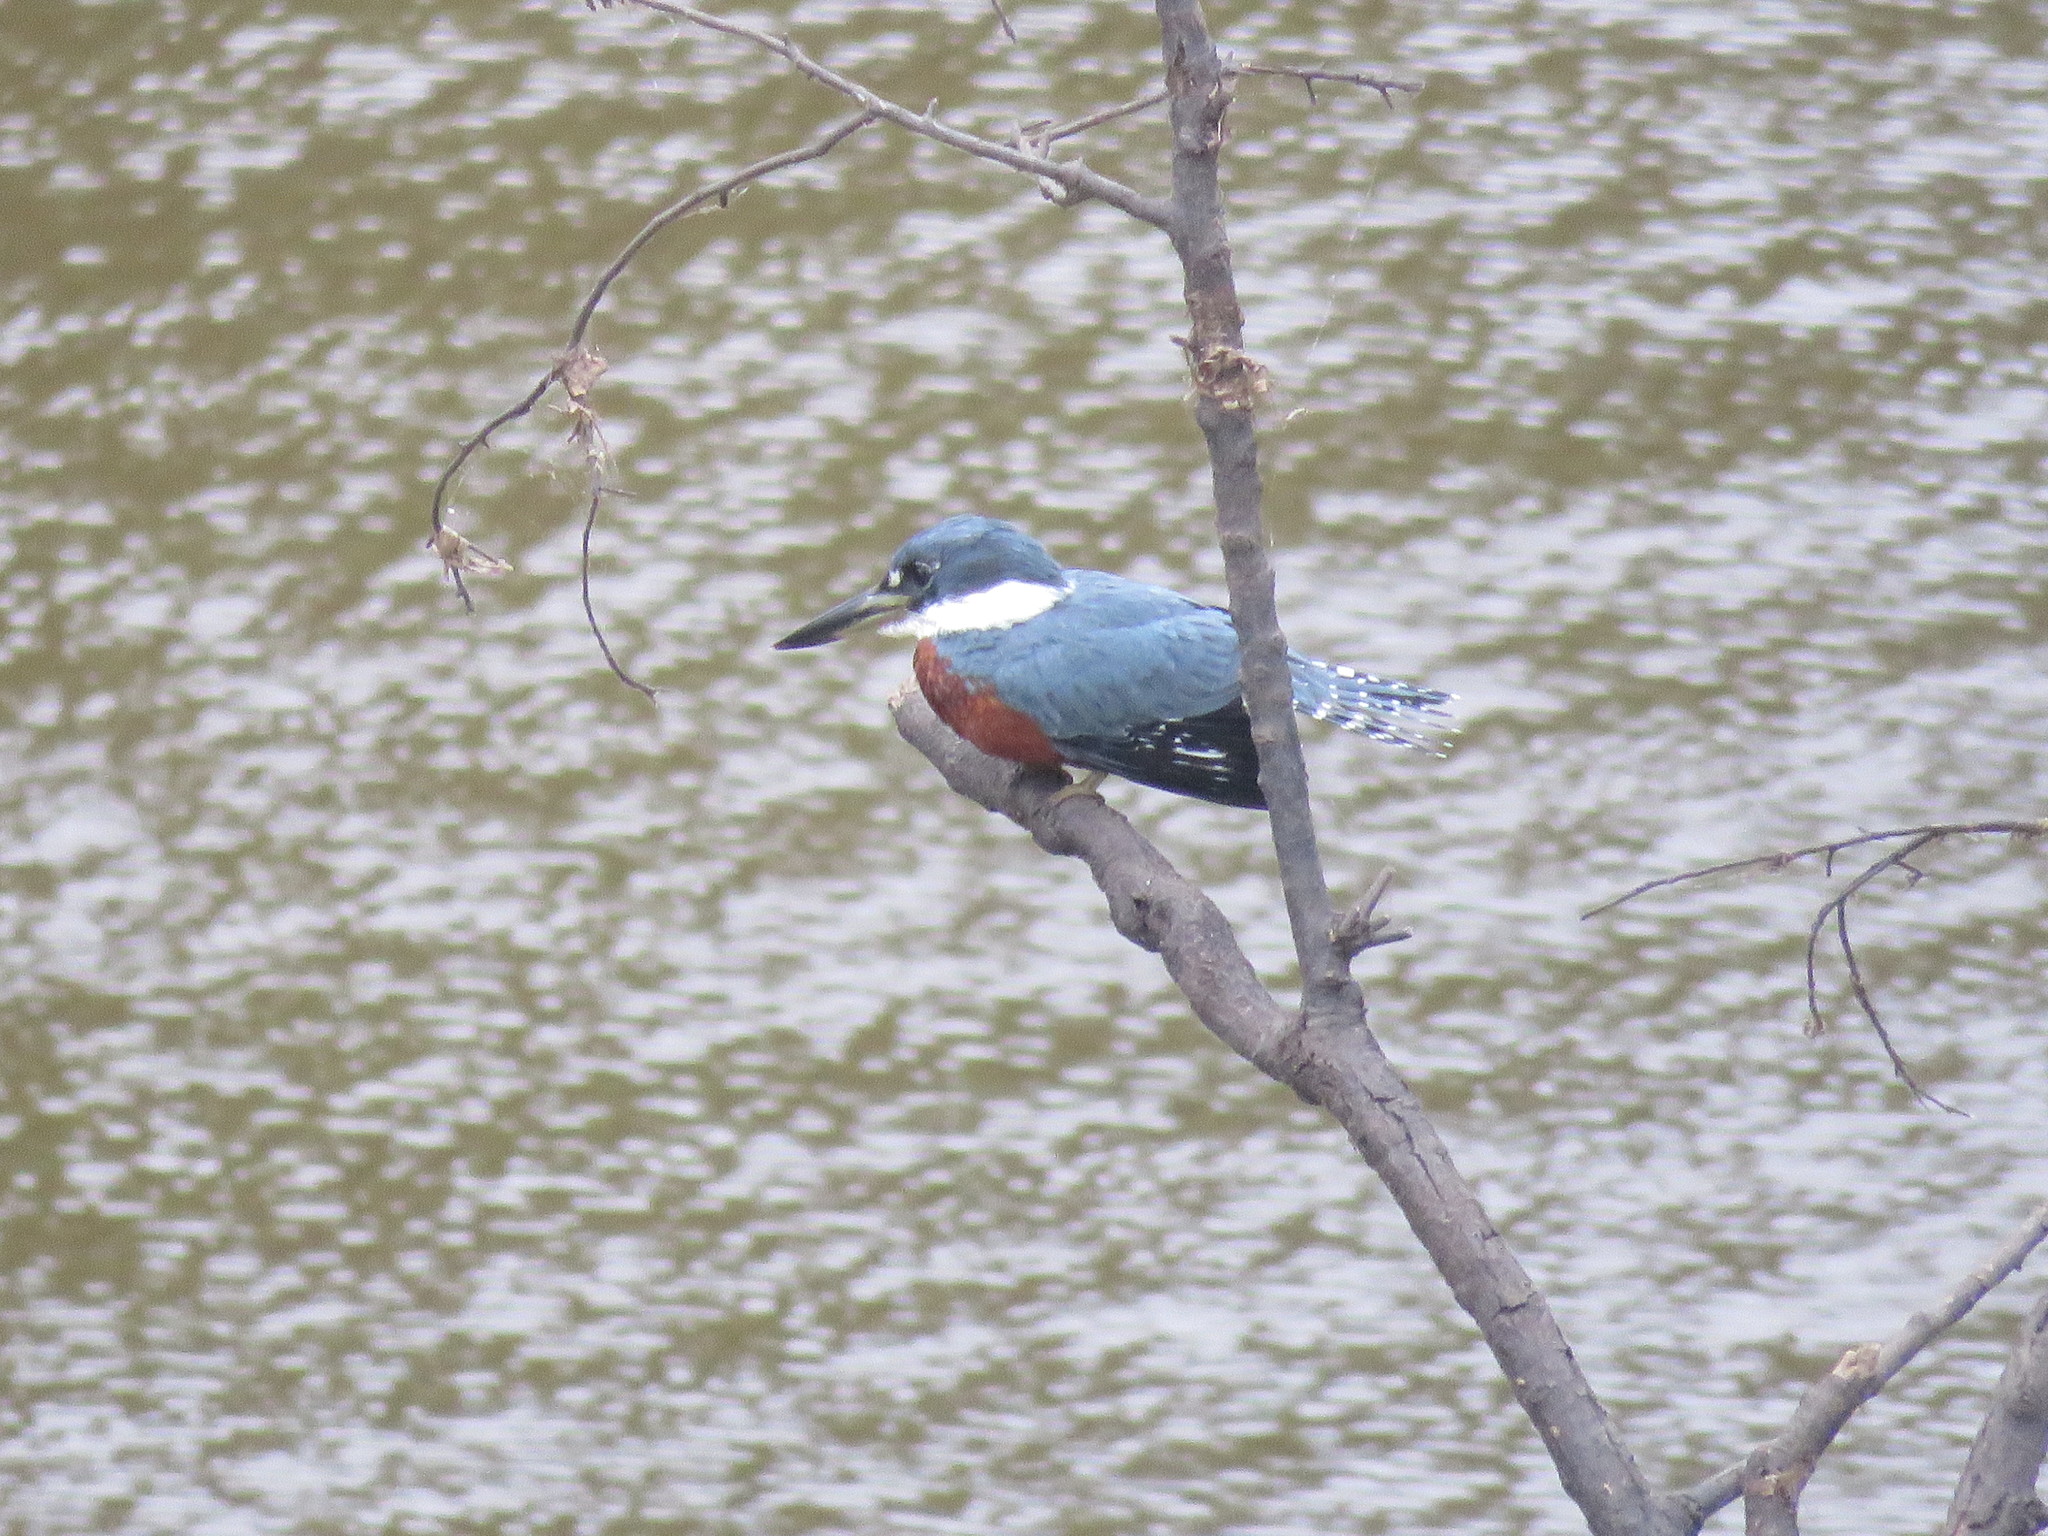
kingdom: Animalia
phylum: Chordata
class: Aves
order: Coraciiformes
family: Alcedinidae
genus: Megaceryle
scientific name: Megaceryle torquata
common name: Ringed kingfisher
